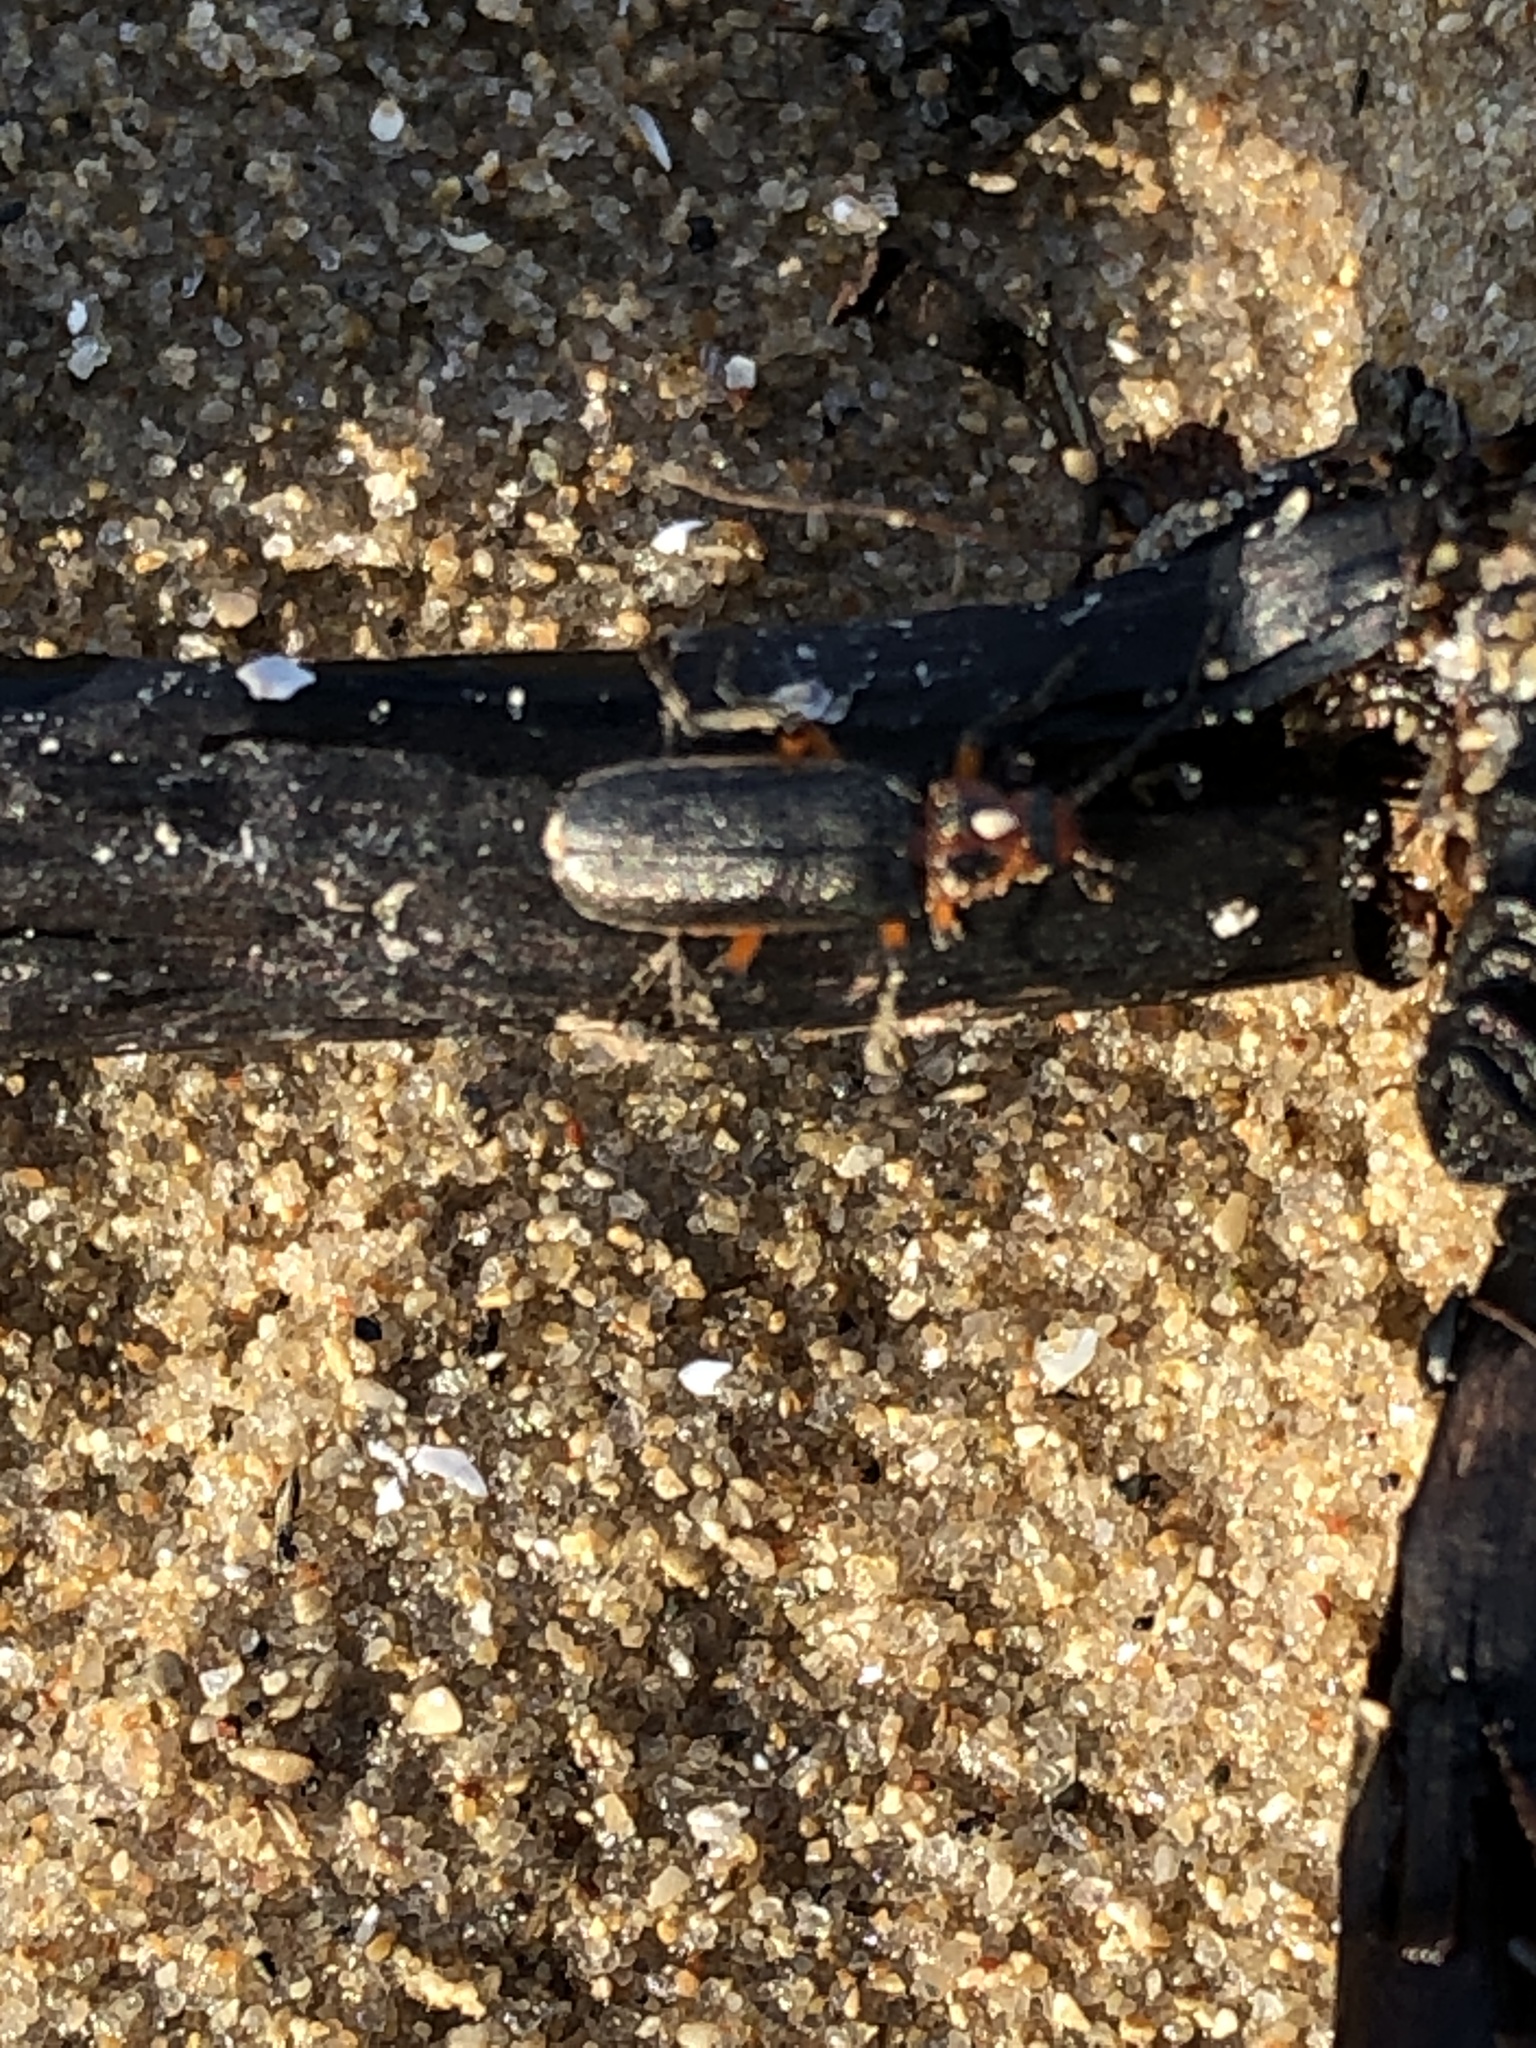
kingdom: Animalia
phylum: Arthropoda
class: Insecta
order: Coleoptera
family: Cantharidae
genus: Atalantycha
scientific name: Atalantycha bilineata
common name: Two-lined leatherwing
